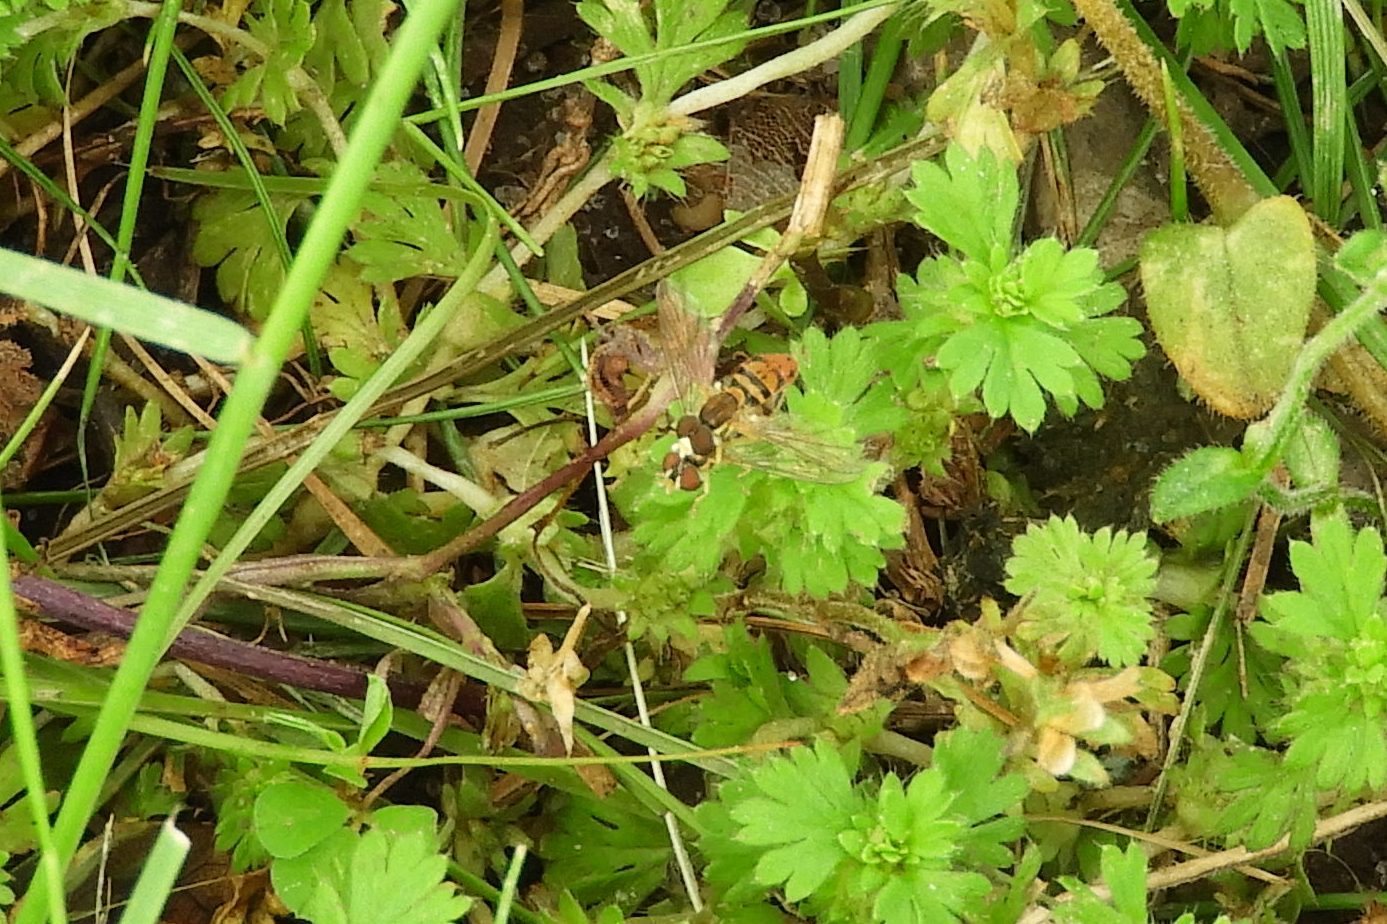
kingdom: Animalia
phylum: Arthropoda
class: Insecta
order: Diptera
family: Syrphidae
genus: Toxomerus
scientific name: Toxomerus marginatus
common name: Syrphid fly
